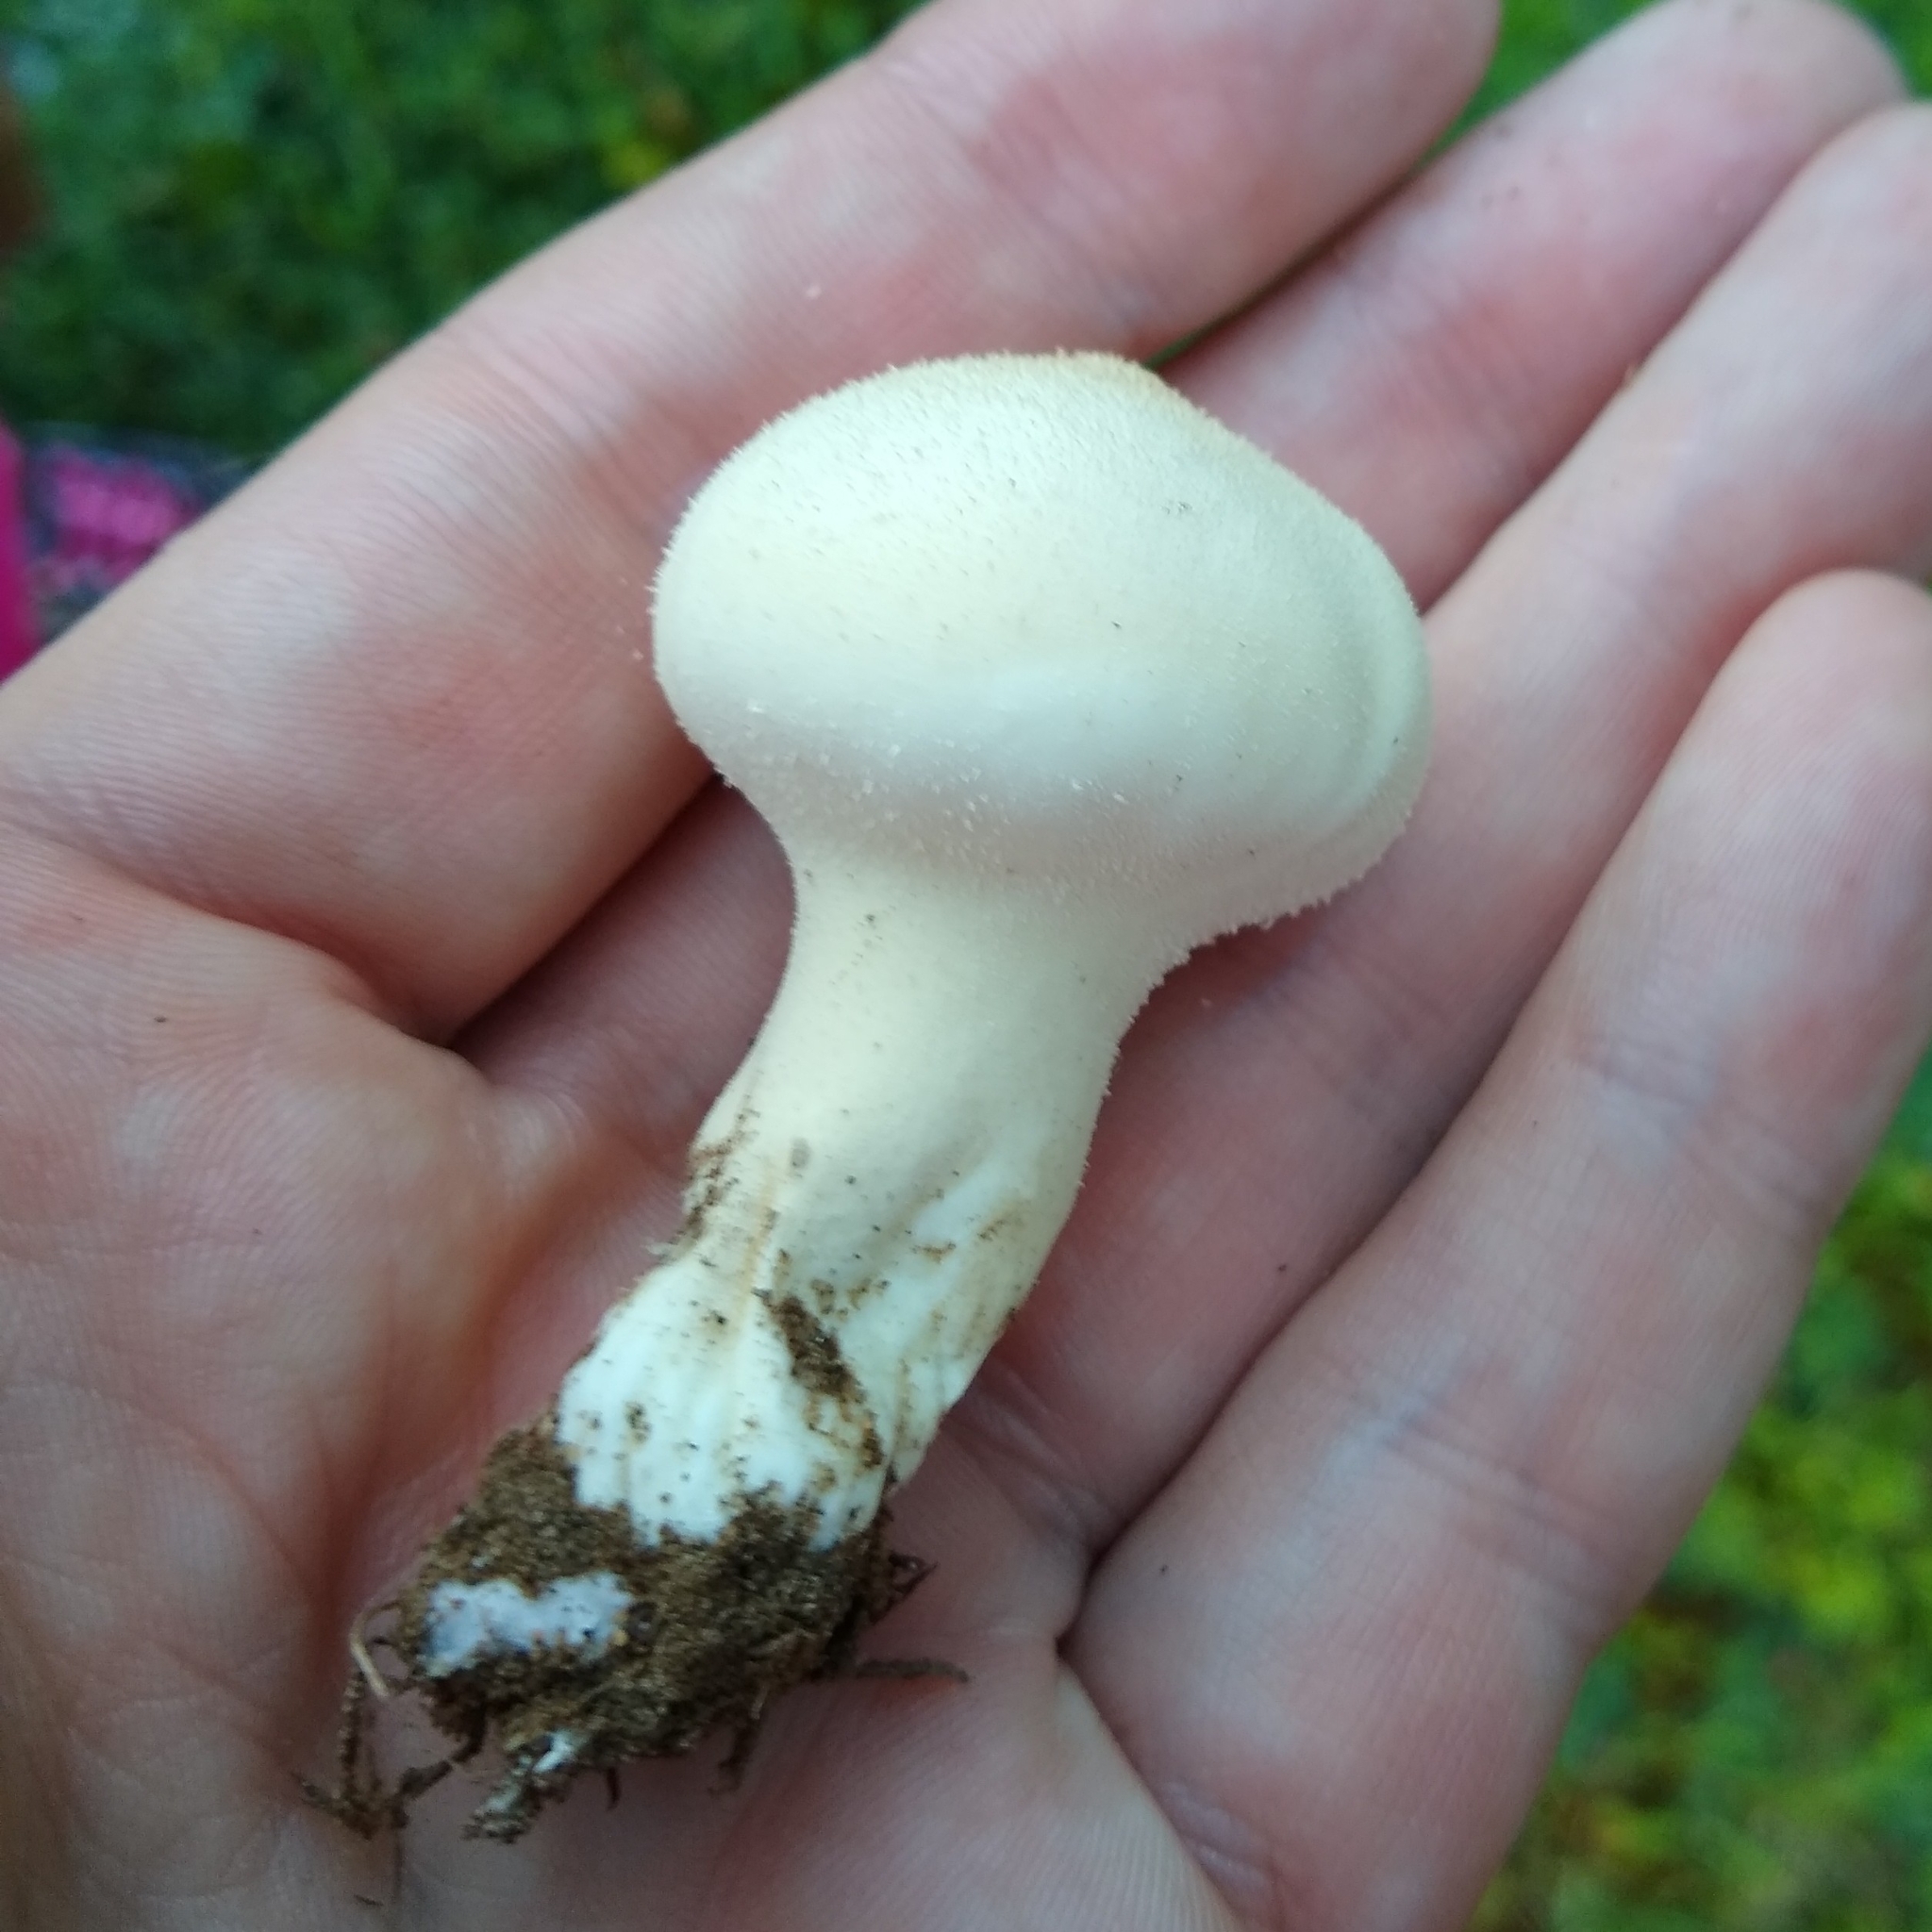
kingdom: Fungi
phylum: Basidiomycota
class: Agaricomycetes
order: Agaricales
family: Lycoperdaceae
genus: Lycoperdon
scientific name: Lycoperdon perlatum
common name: Common puffball
